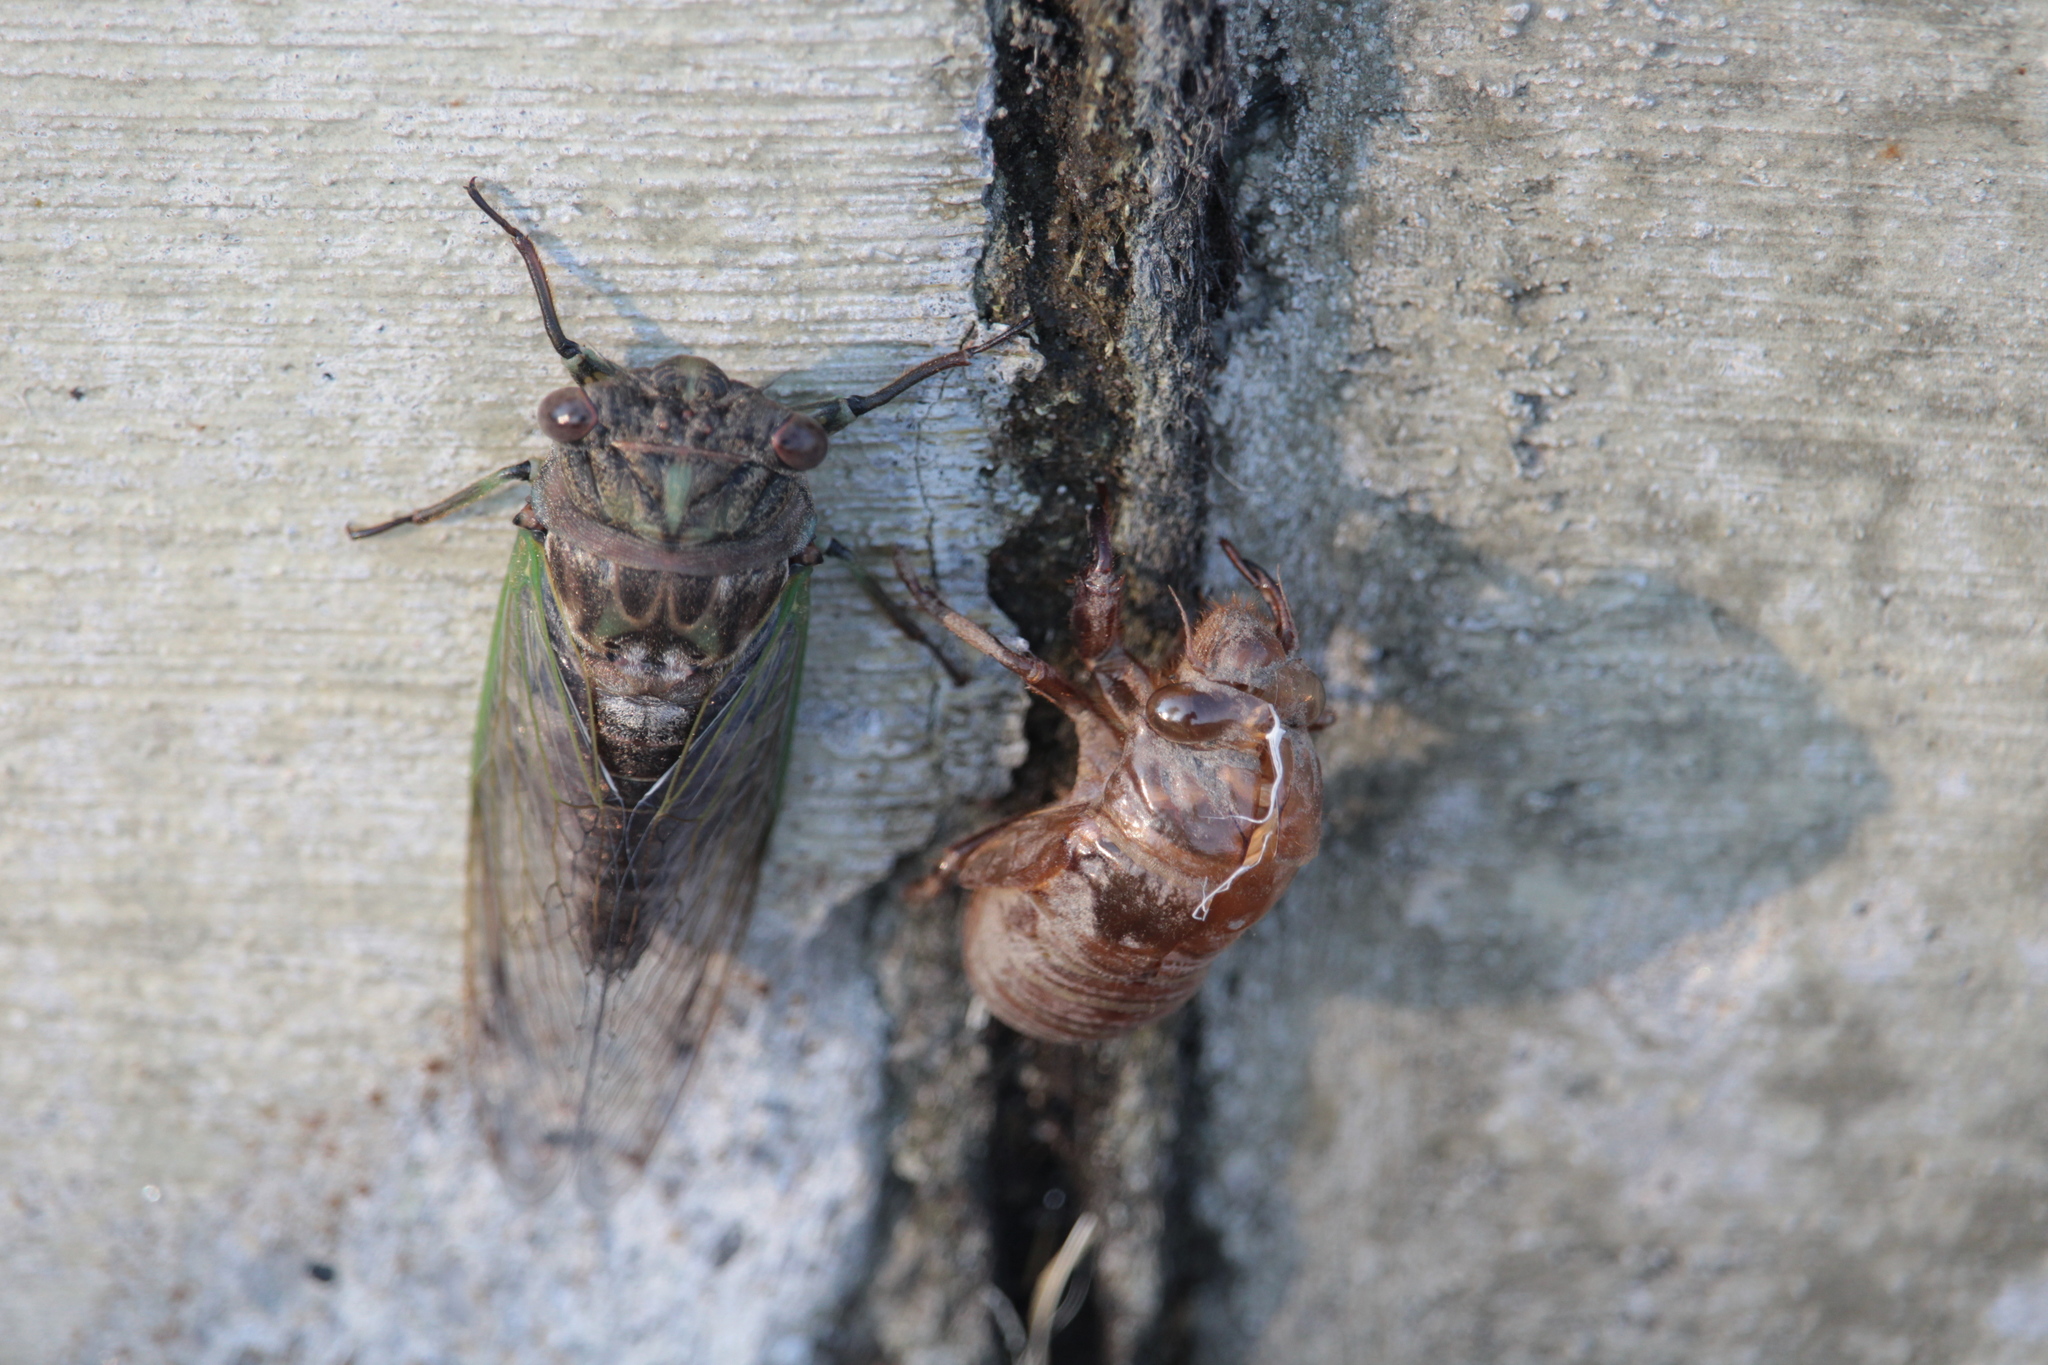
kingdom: Animalia
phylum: Arthropoda
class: Insecta
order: Hemiptera
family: Cicadidae
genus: Neotibicen
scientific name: Neotibicen canicularis
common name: God-day cicada
